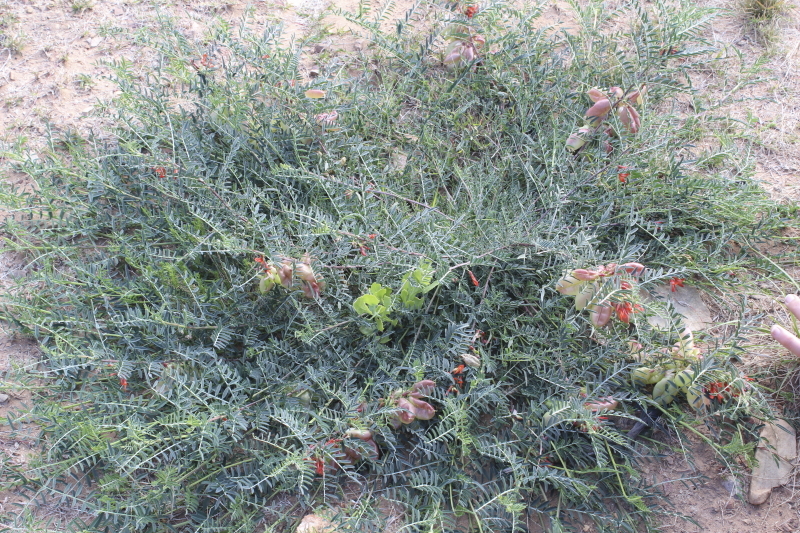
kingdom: Plantae
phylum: Tracheophyta
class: Magnoliopsida
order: Fabales
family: Fabaceae
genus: Lessertia
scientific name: Lessertia frutescens
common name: Balloon-pea
